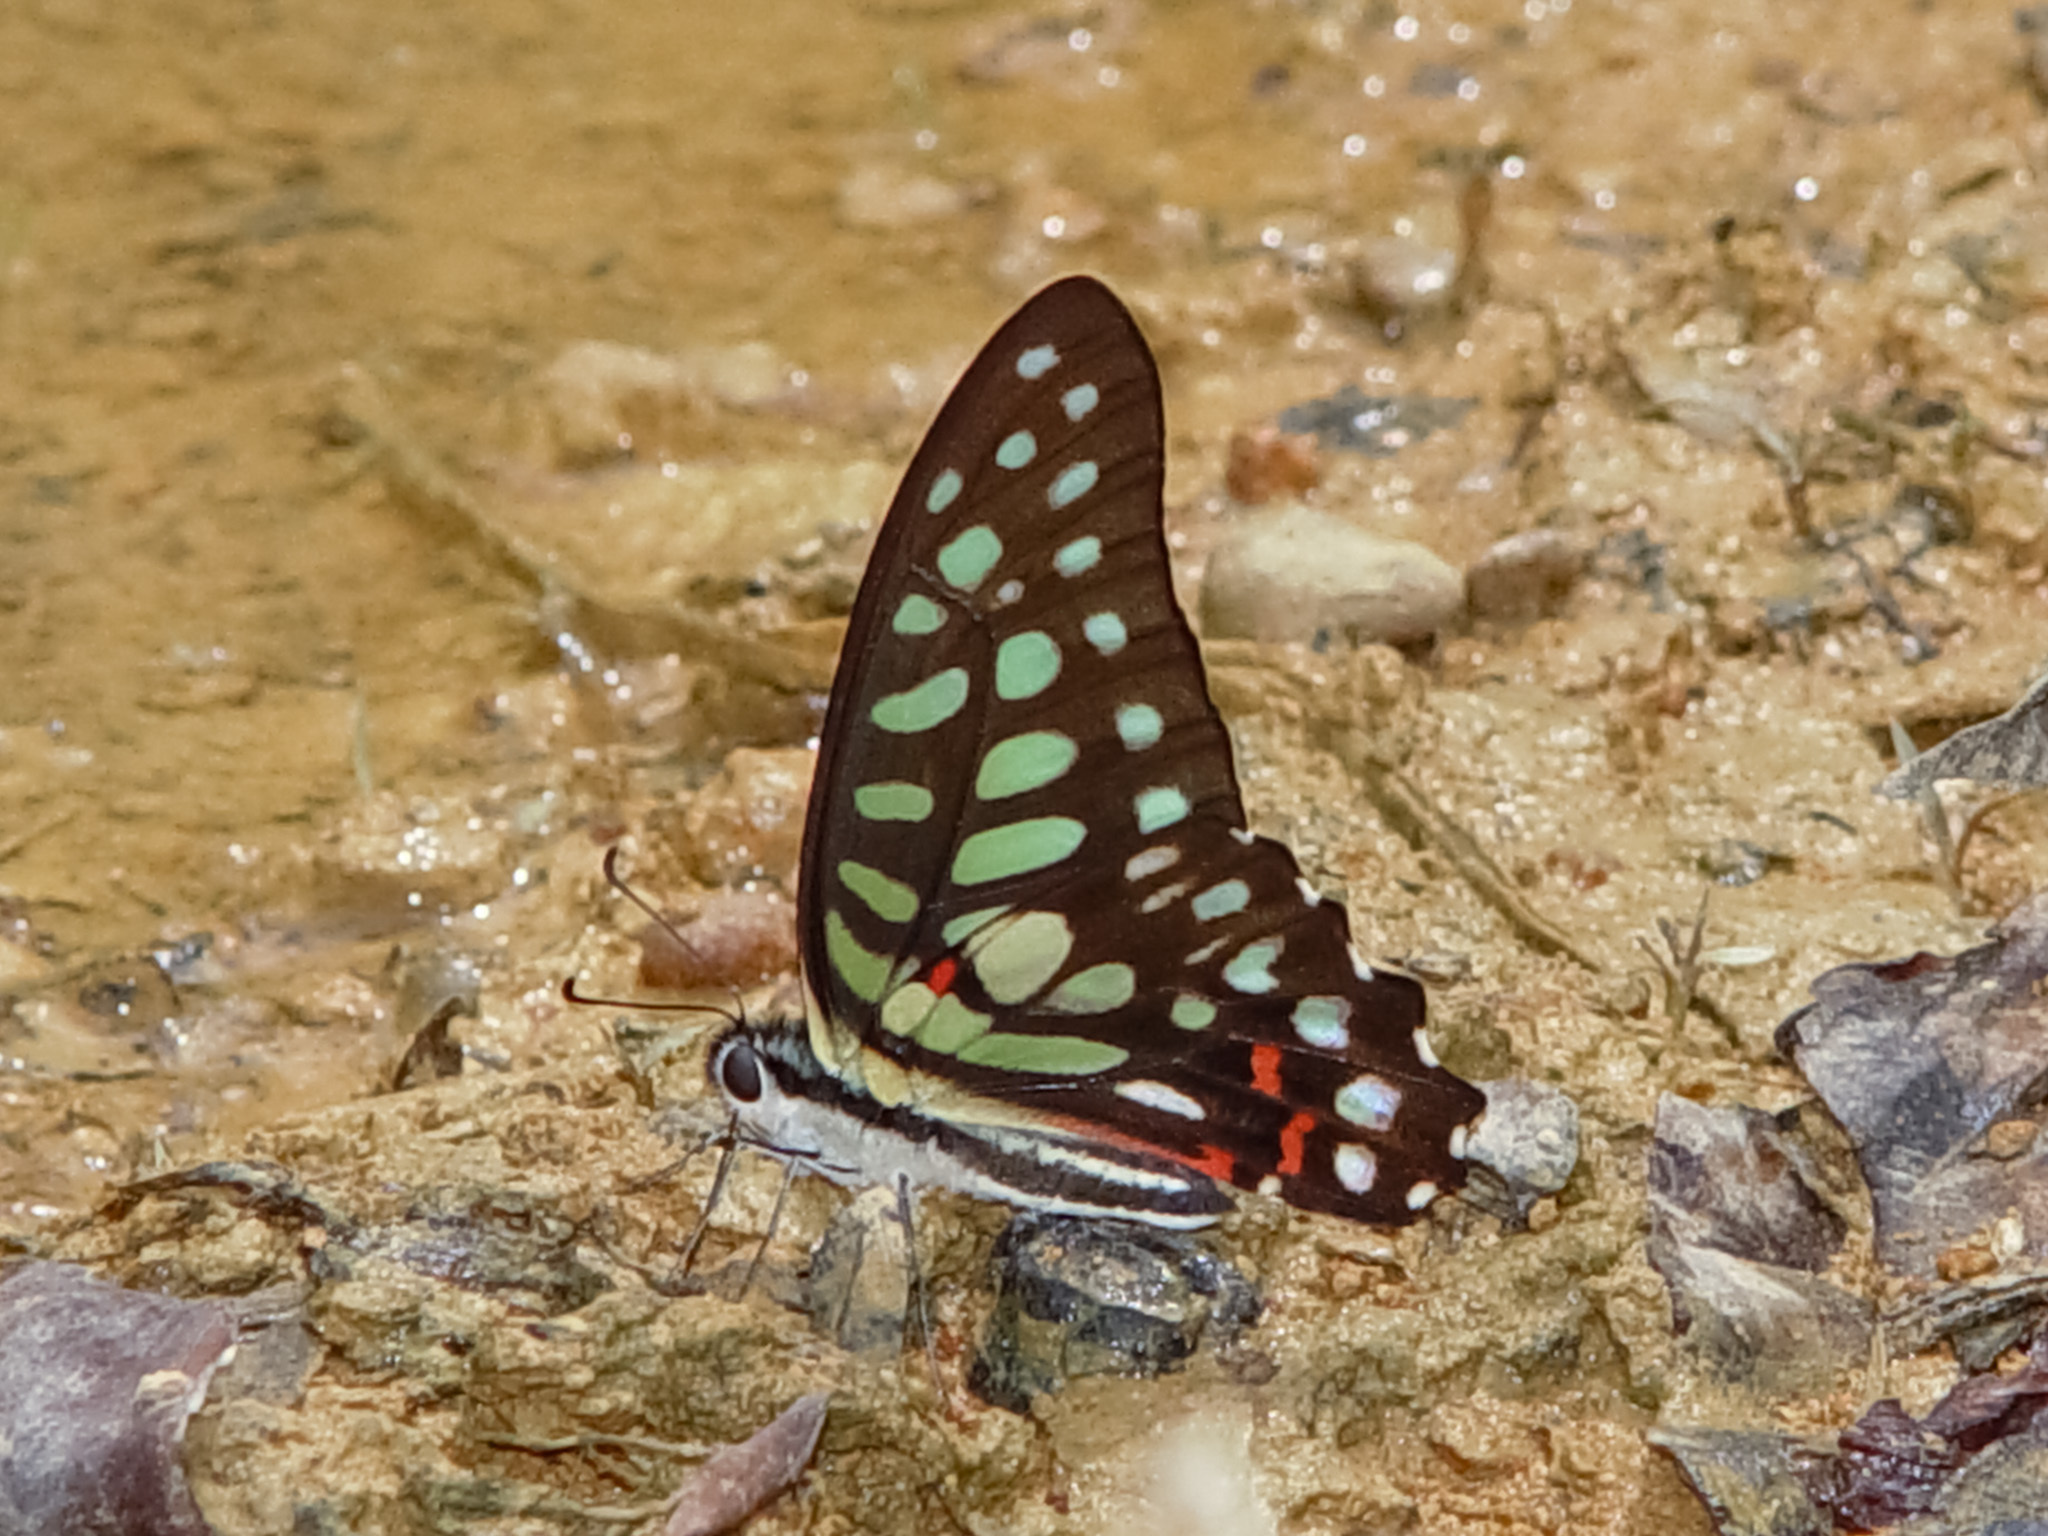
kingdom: Animalia
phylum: Arthropoda
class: Insecta
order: Lepidoptera
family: Papilionidae
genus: Graphium
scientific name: Graphium arycles
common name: Spotted jay
